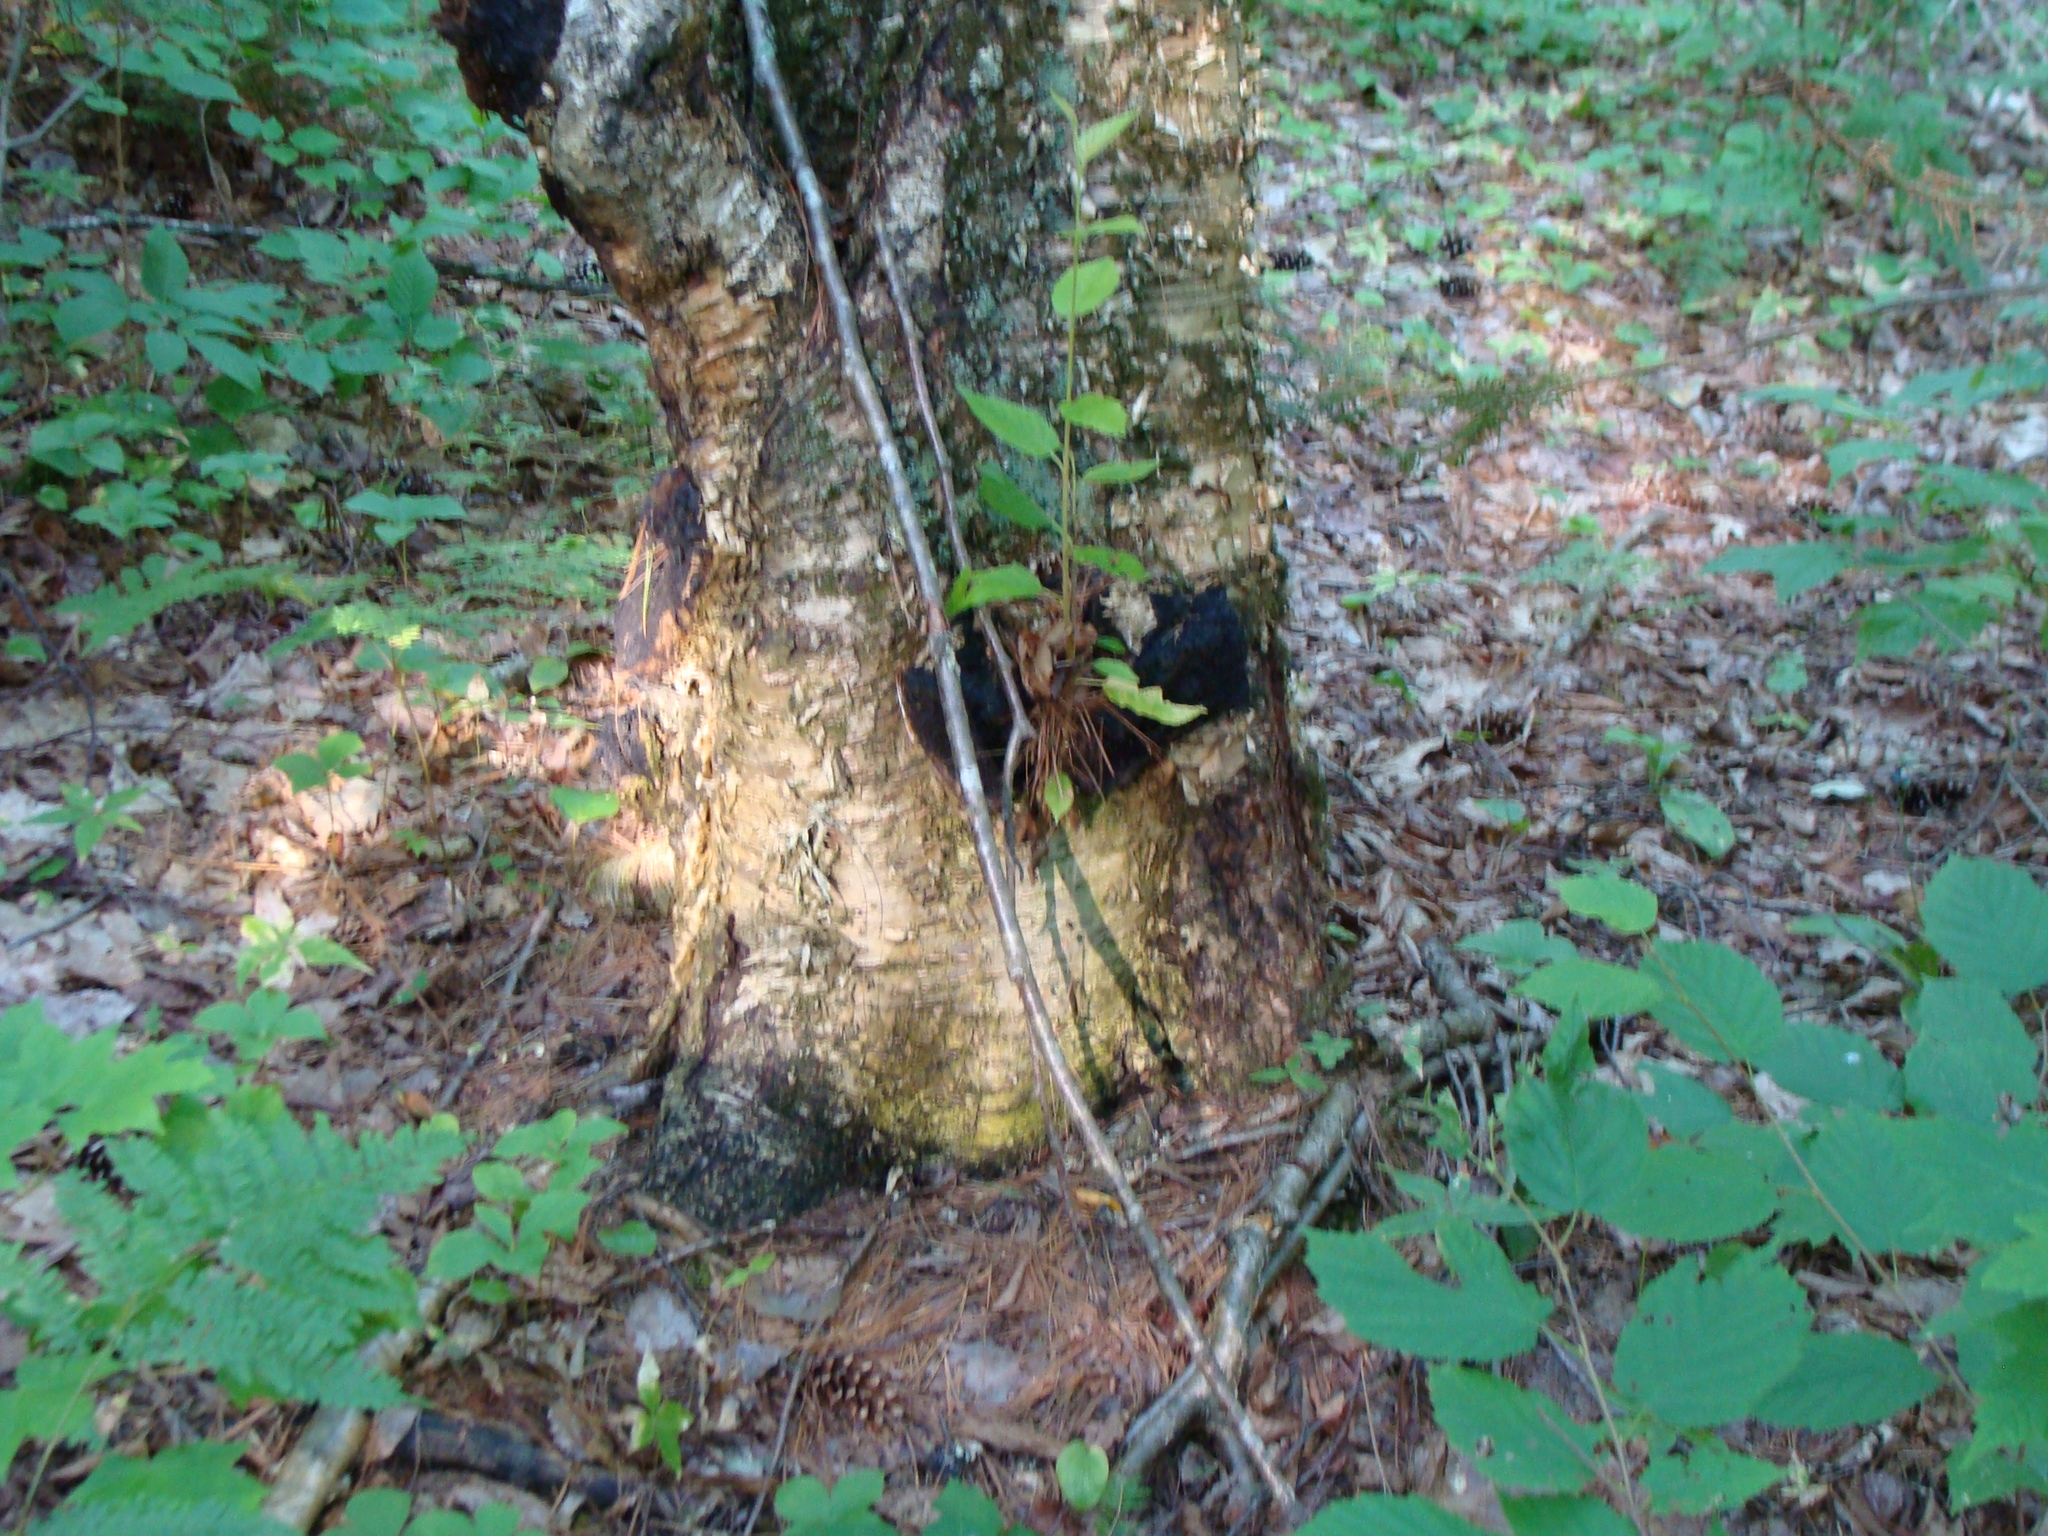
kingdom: Fungi
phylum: Basidiomycota
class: Agaricomycetes
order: Hymenochaetales
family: Hymenochaetaceae
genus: Inonotus
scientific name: Inonotus obliquus
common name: Chaga
